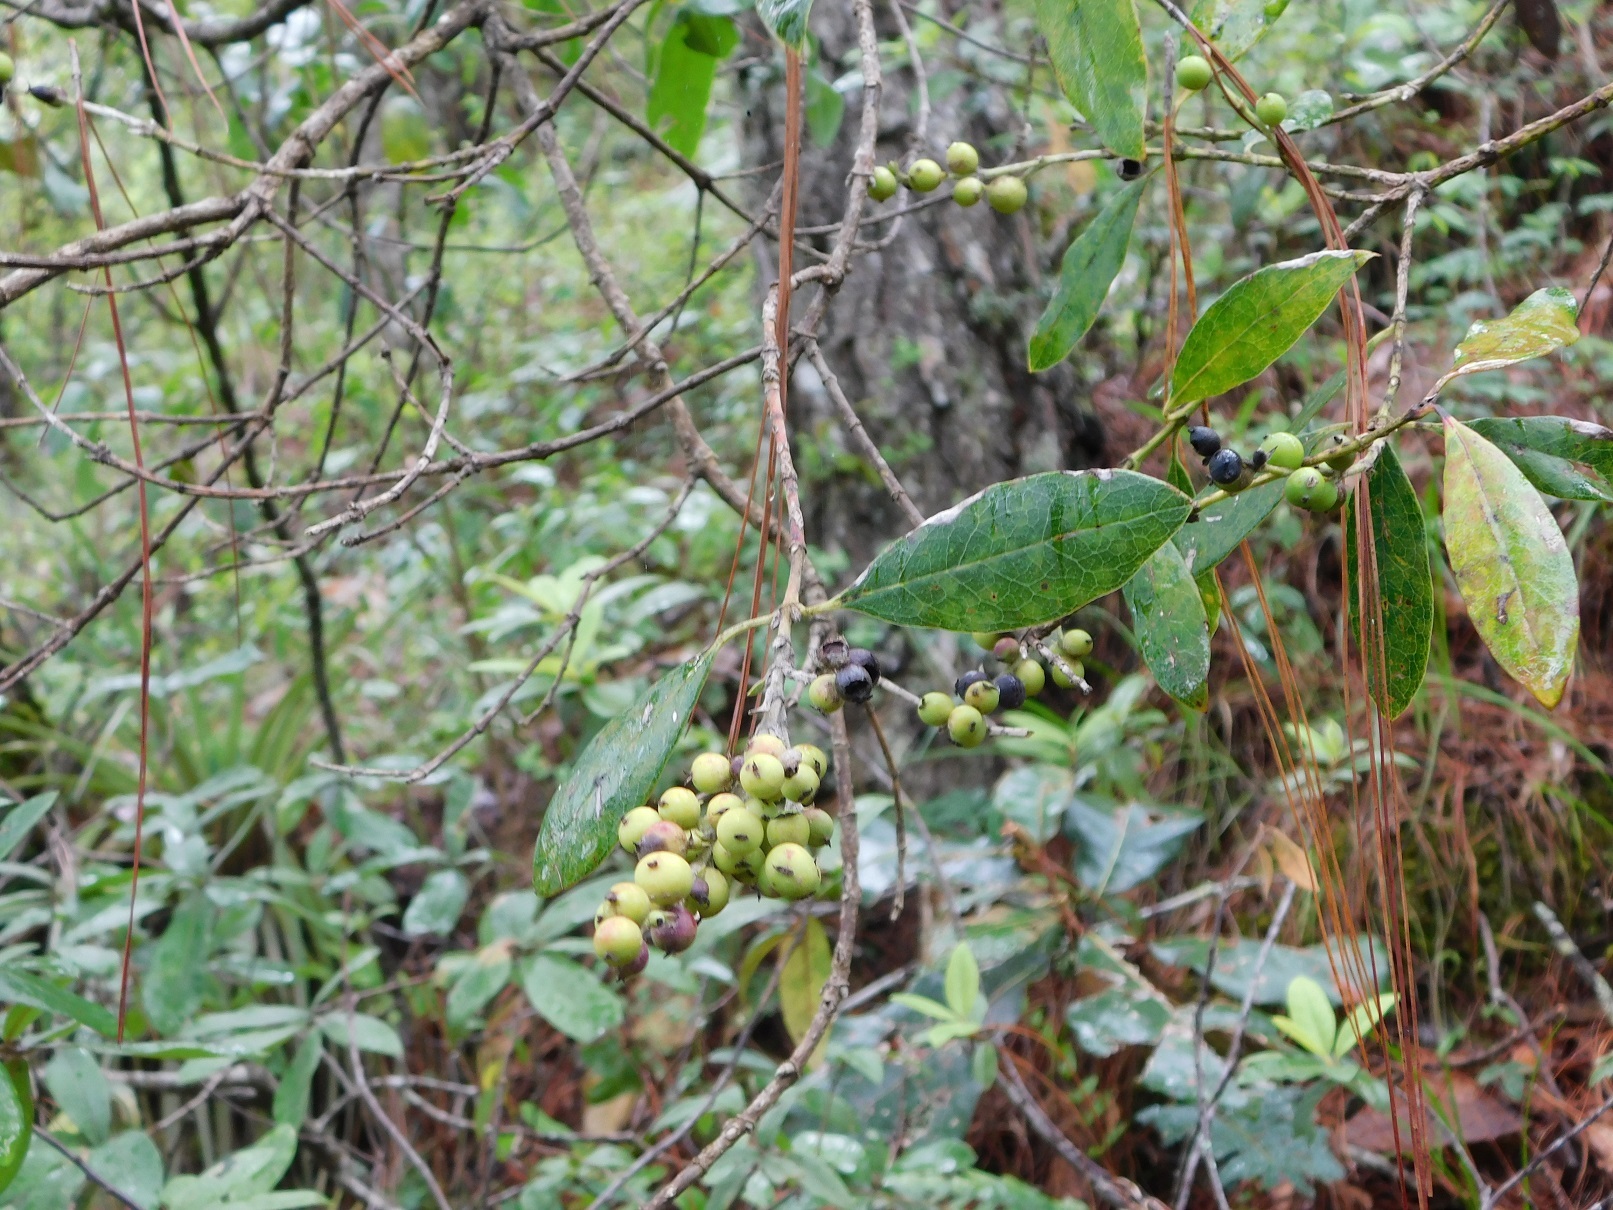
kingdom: Plantae
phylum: Tracheophyta
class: Magnoliopsida
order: Garryales
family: Garryaceae
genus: Garrya
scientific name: Garrya laurifolia
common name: Cuachichic
